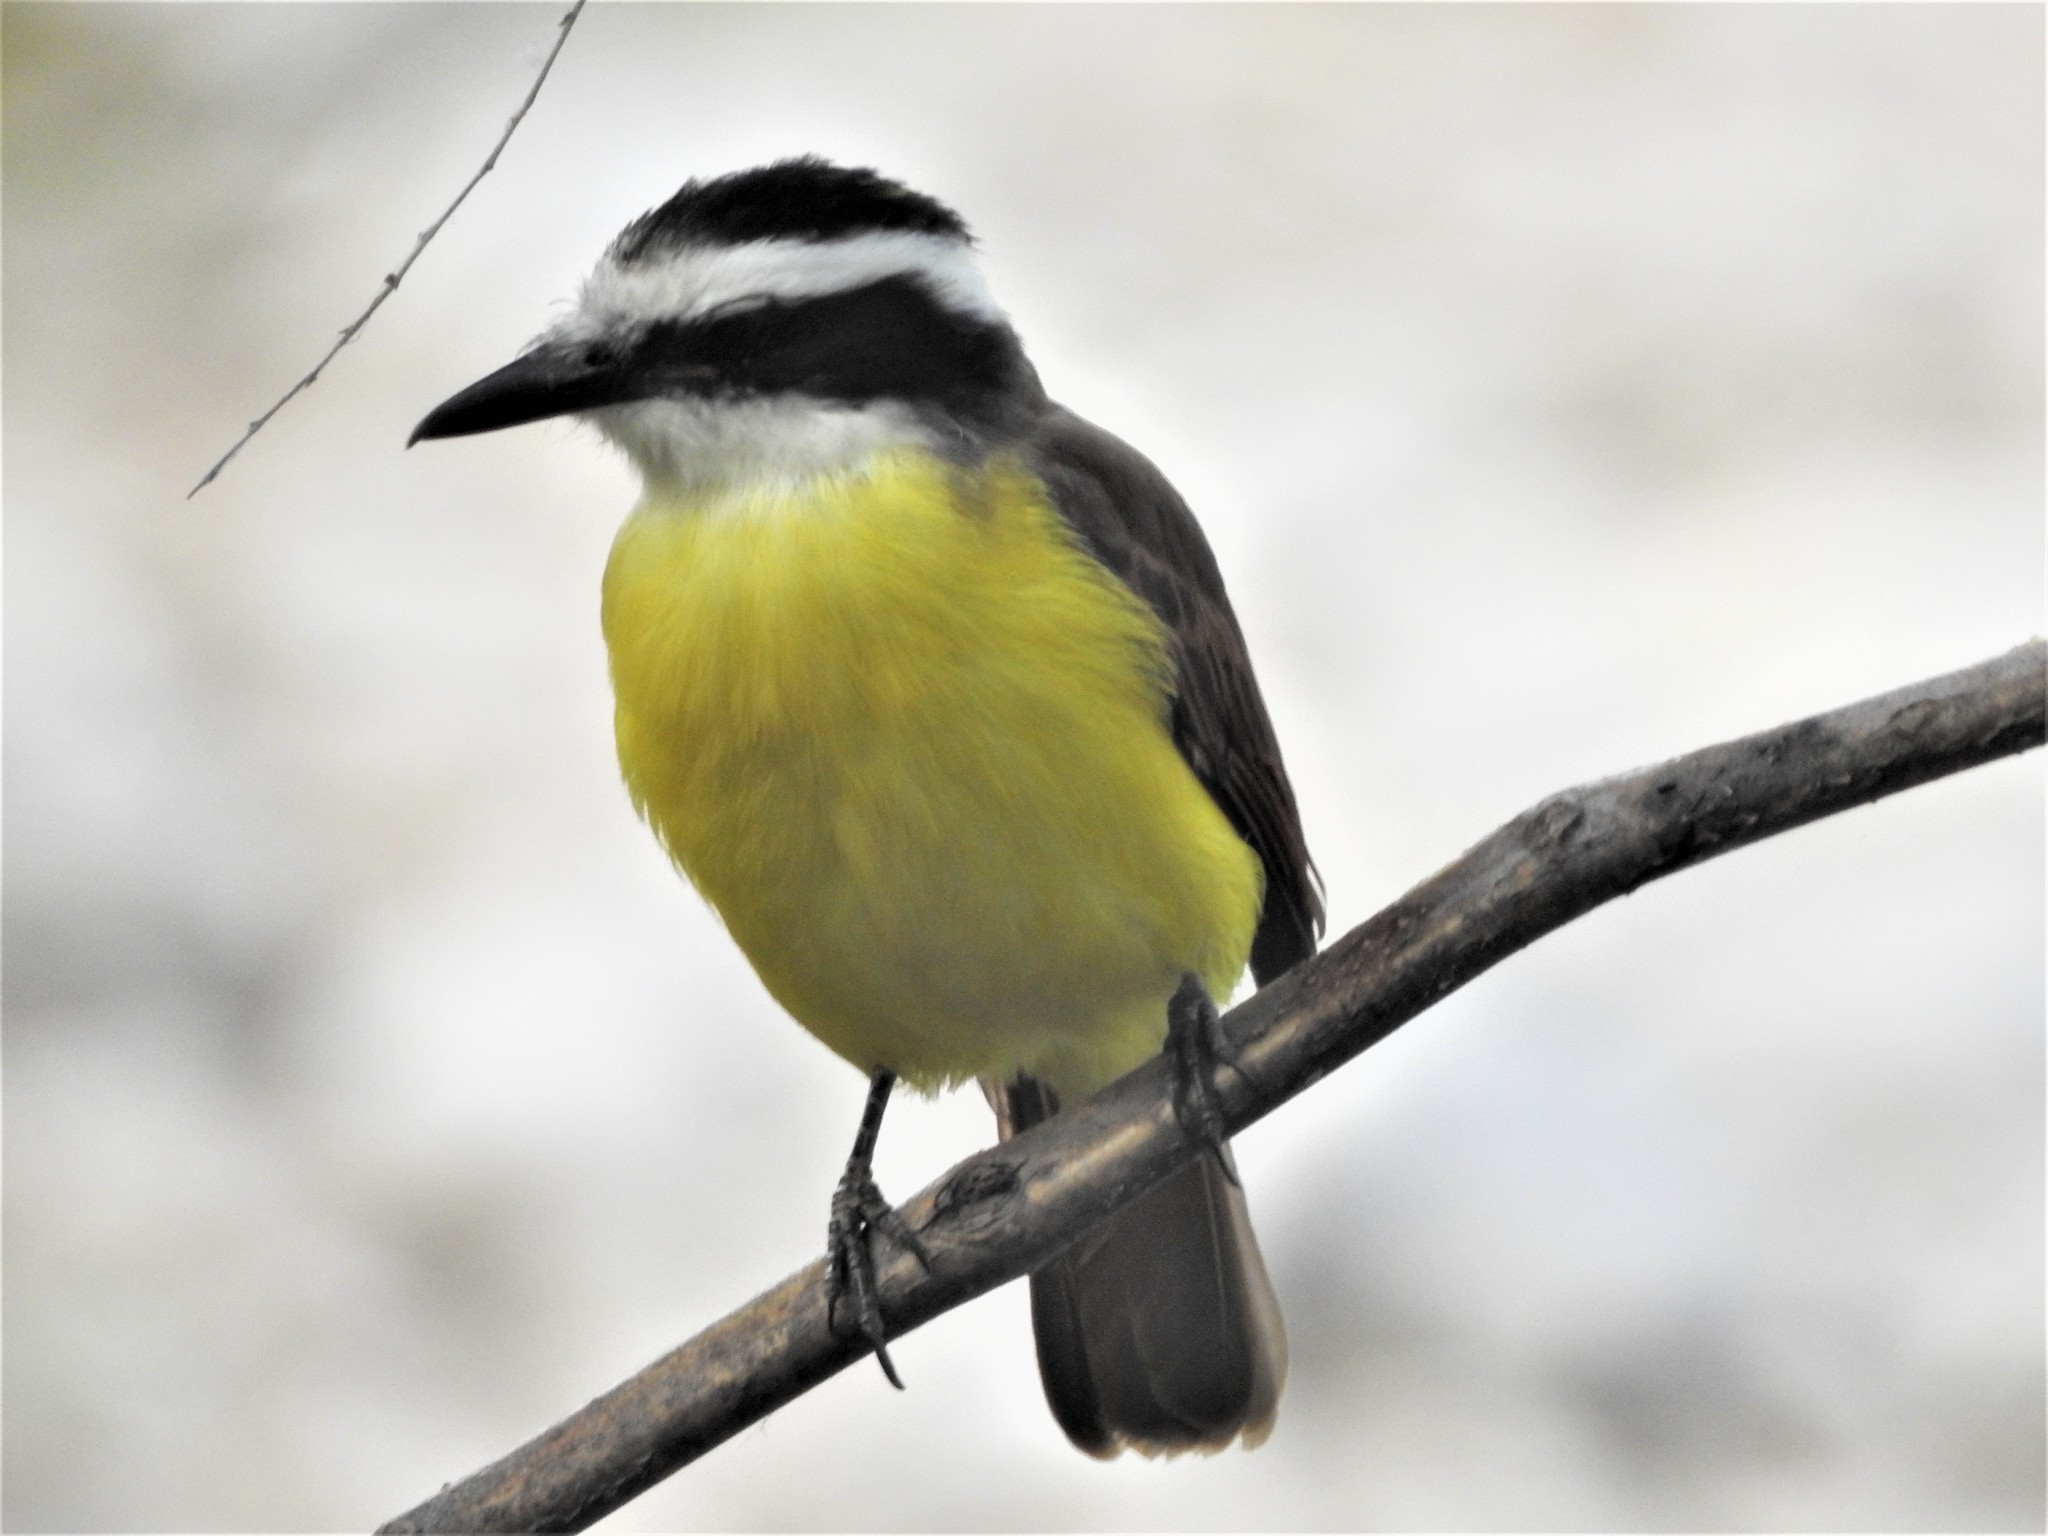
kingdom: Animalia
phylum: Chordata
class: Aves
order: Passeriformes
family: Tyrannidae
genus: Pitangus
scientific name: Pitangus sulphuratus
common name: Great kiskadee
